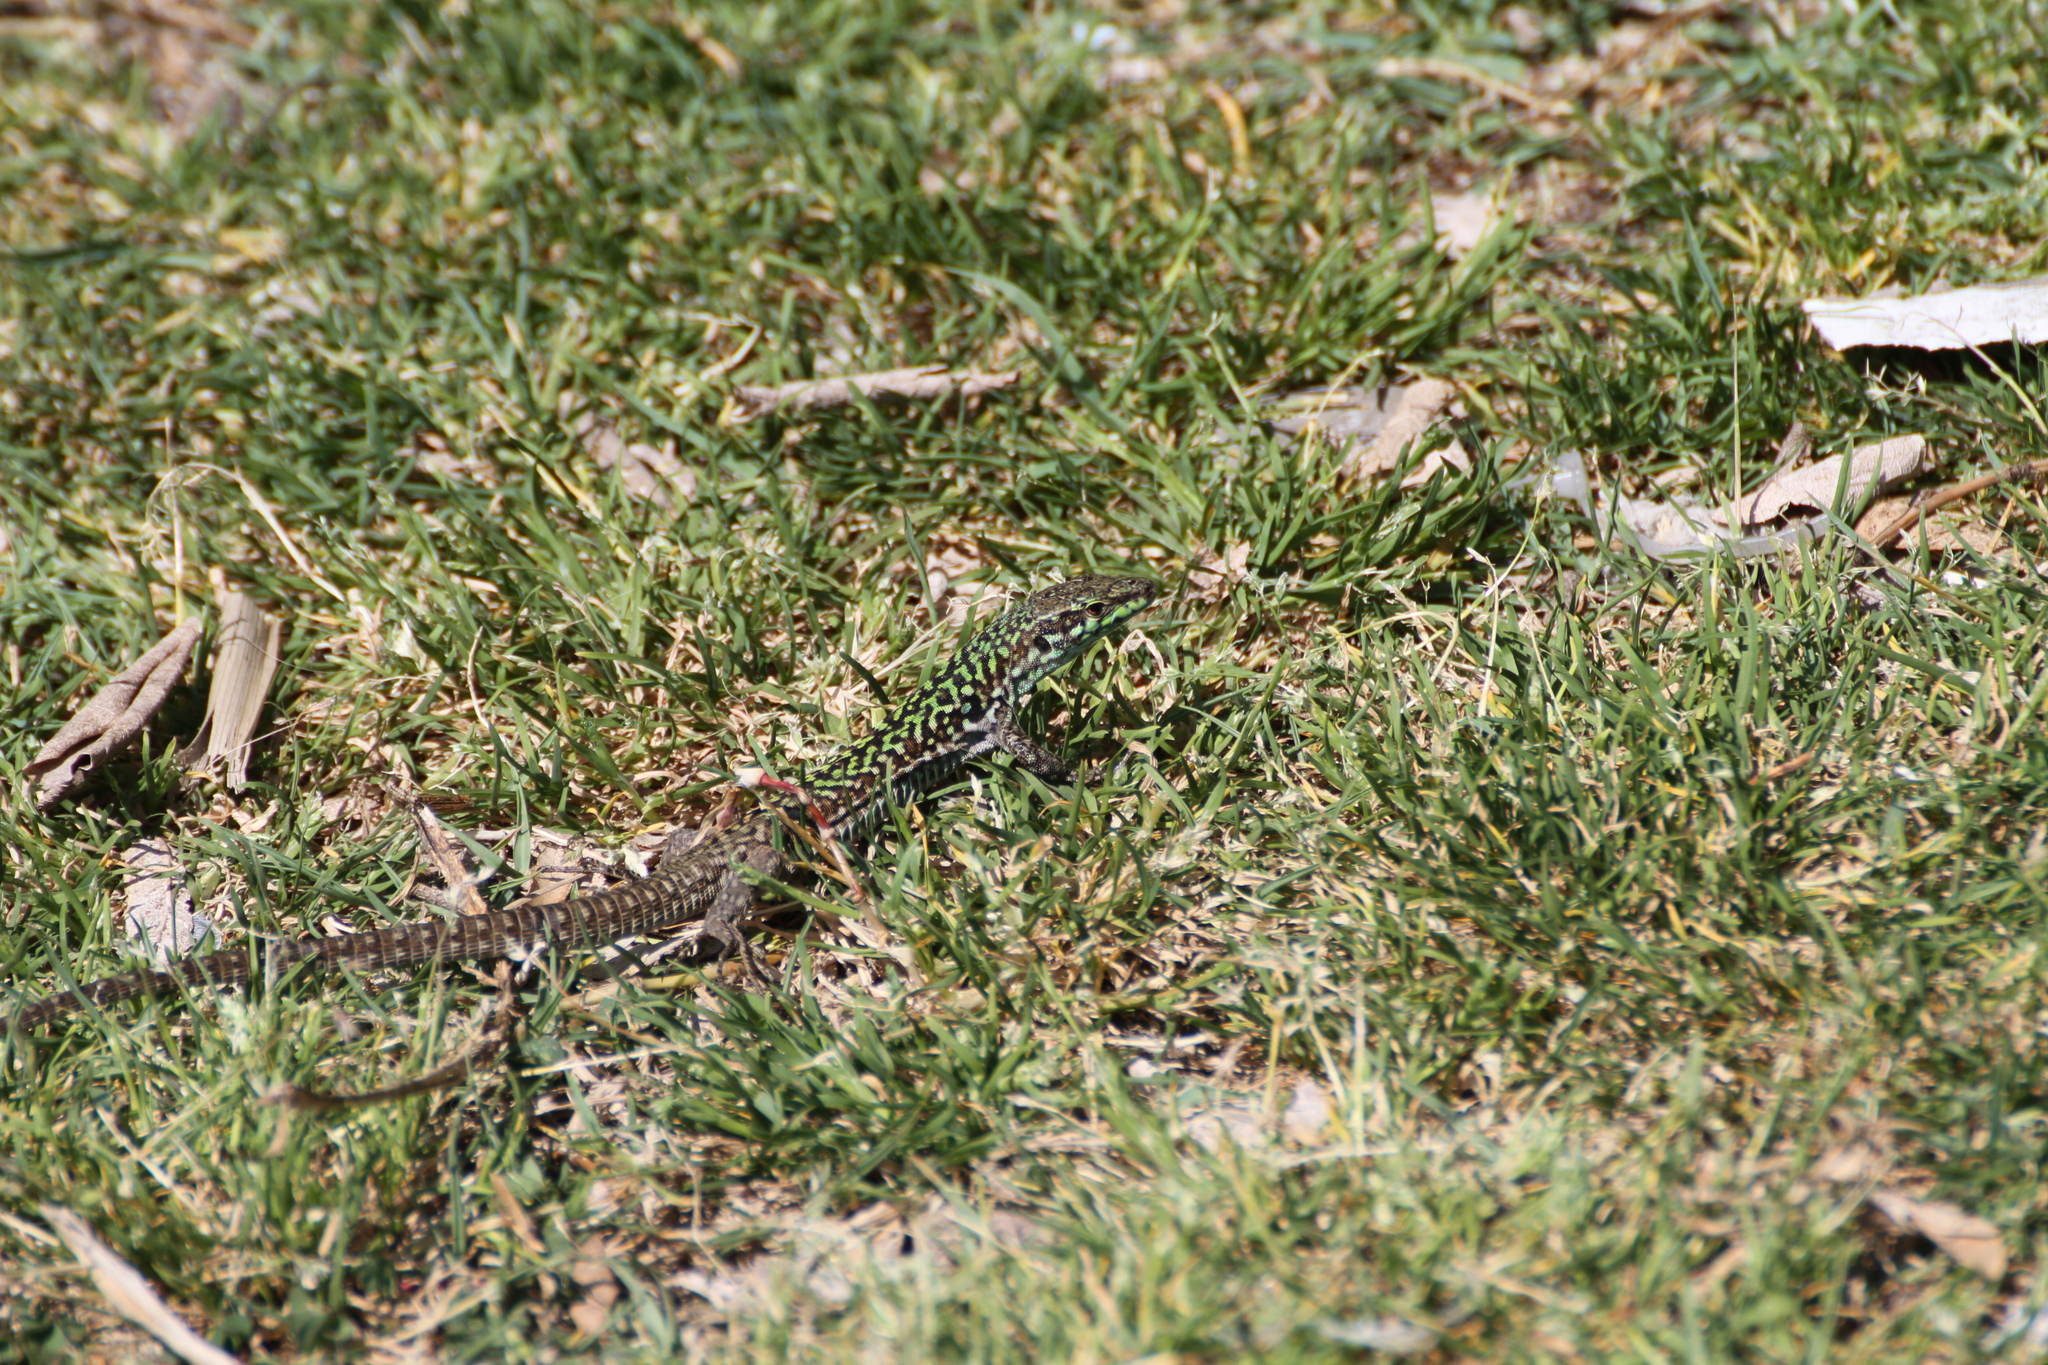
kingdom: Animalia
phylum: Chordata
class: Squamata
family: Lacertidae
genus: Podarcis
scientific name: Podarcis siculus
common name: Italian wall lizard
